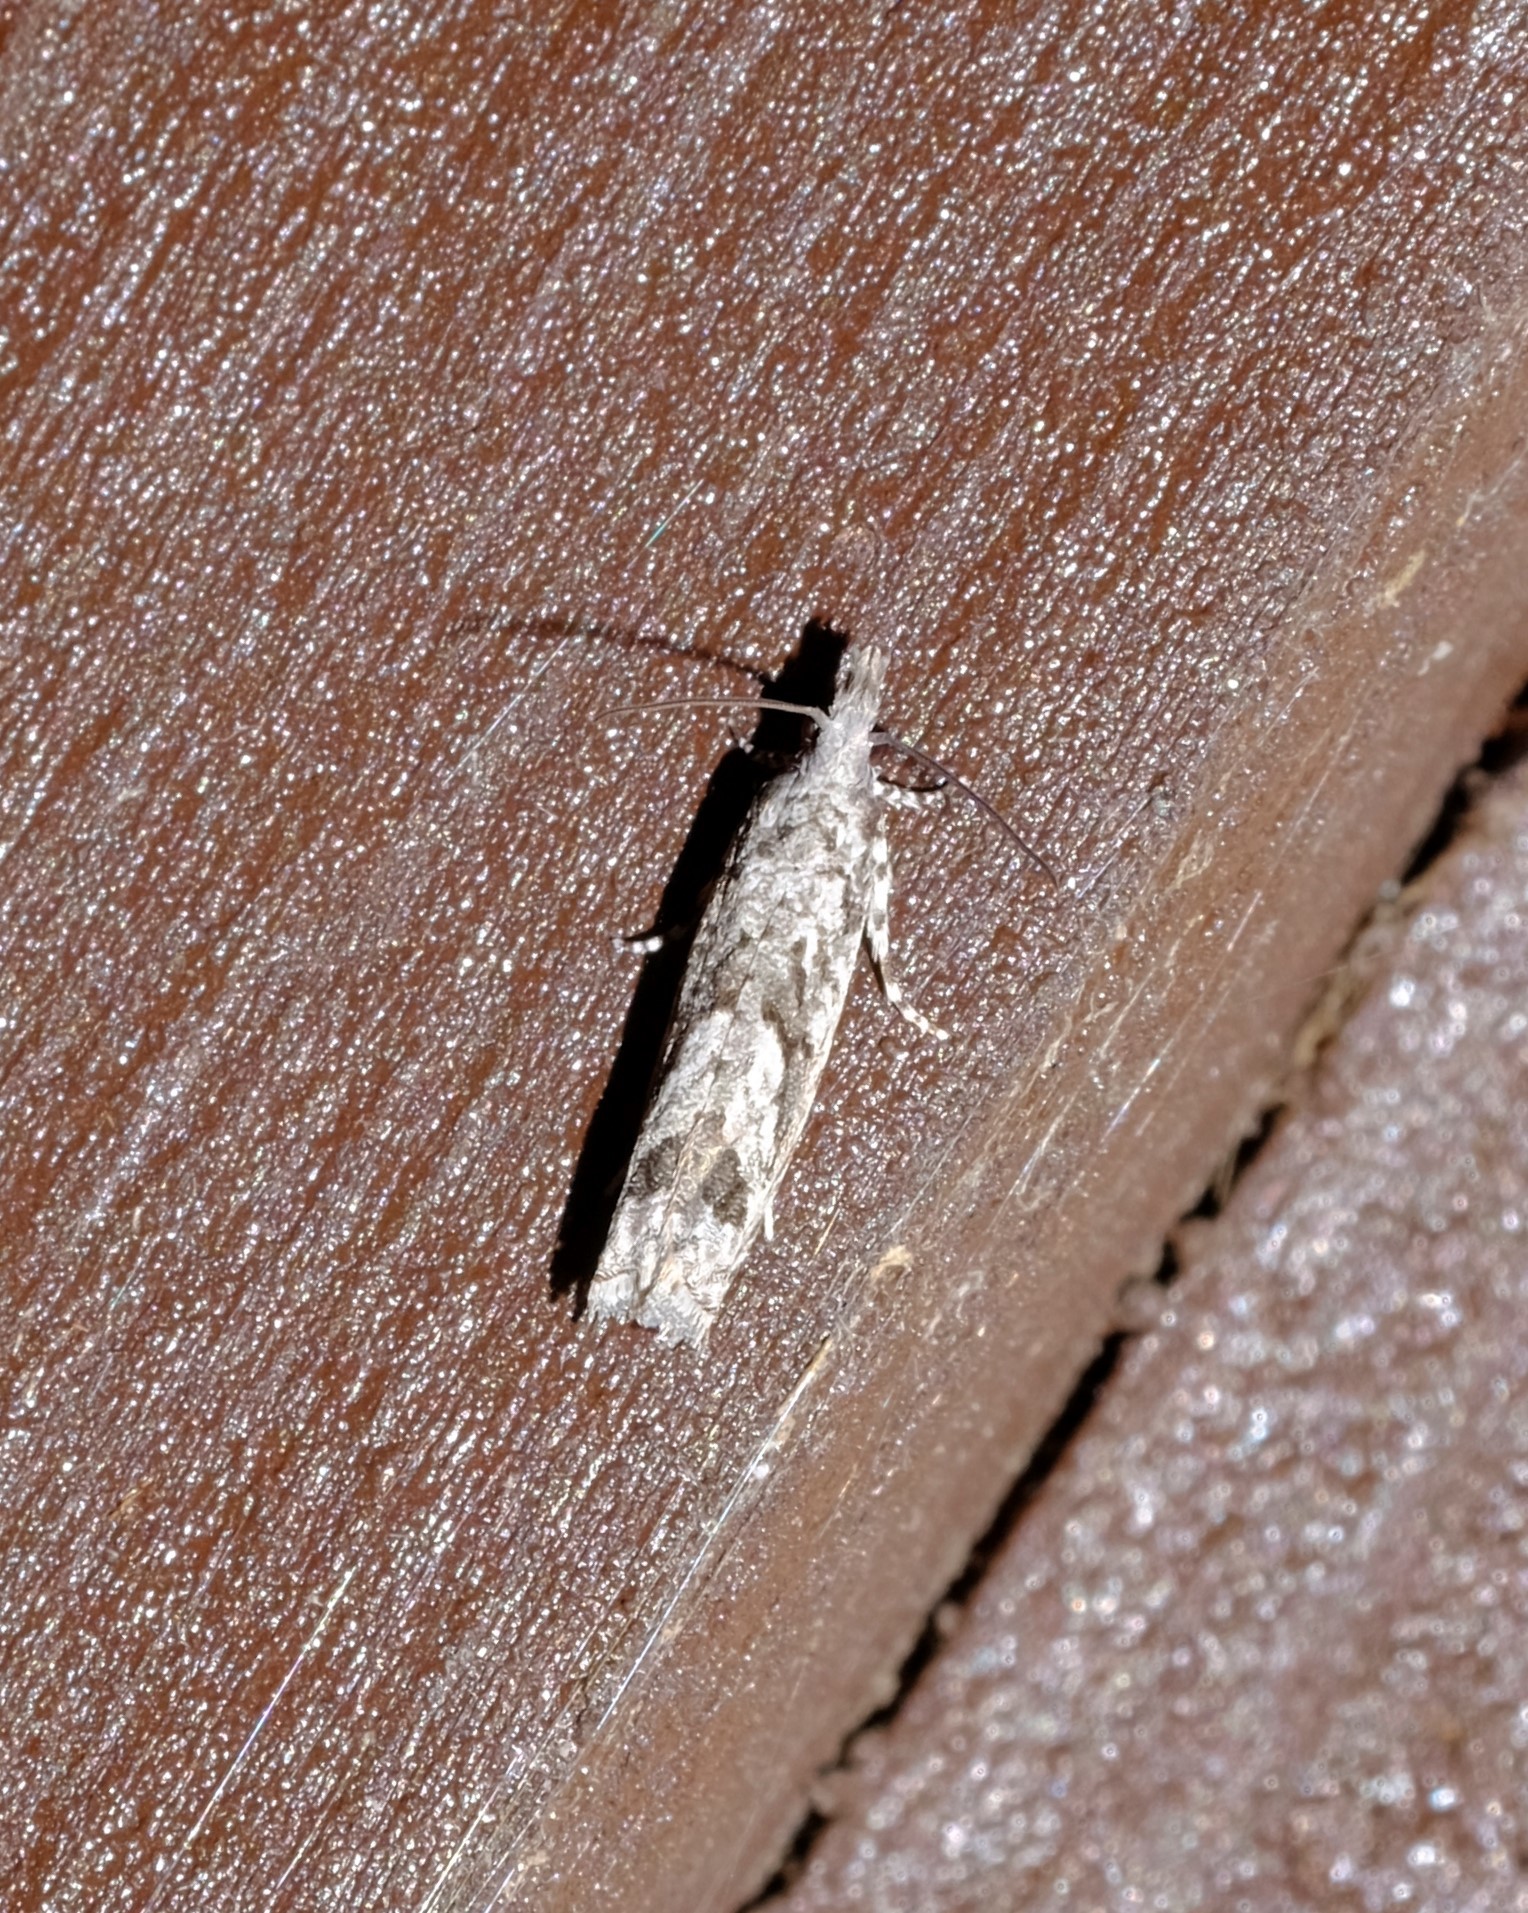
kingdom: Animalia
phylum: Arthropoda
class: Insecta
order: Lepidoptera
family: Tortricidae
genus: Holocola
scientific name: Holocola thalassinana
